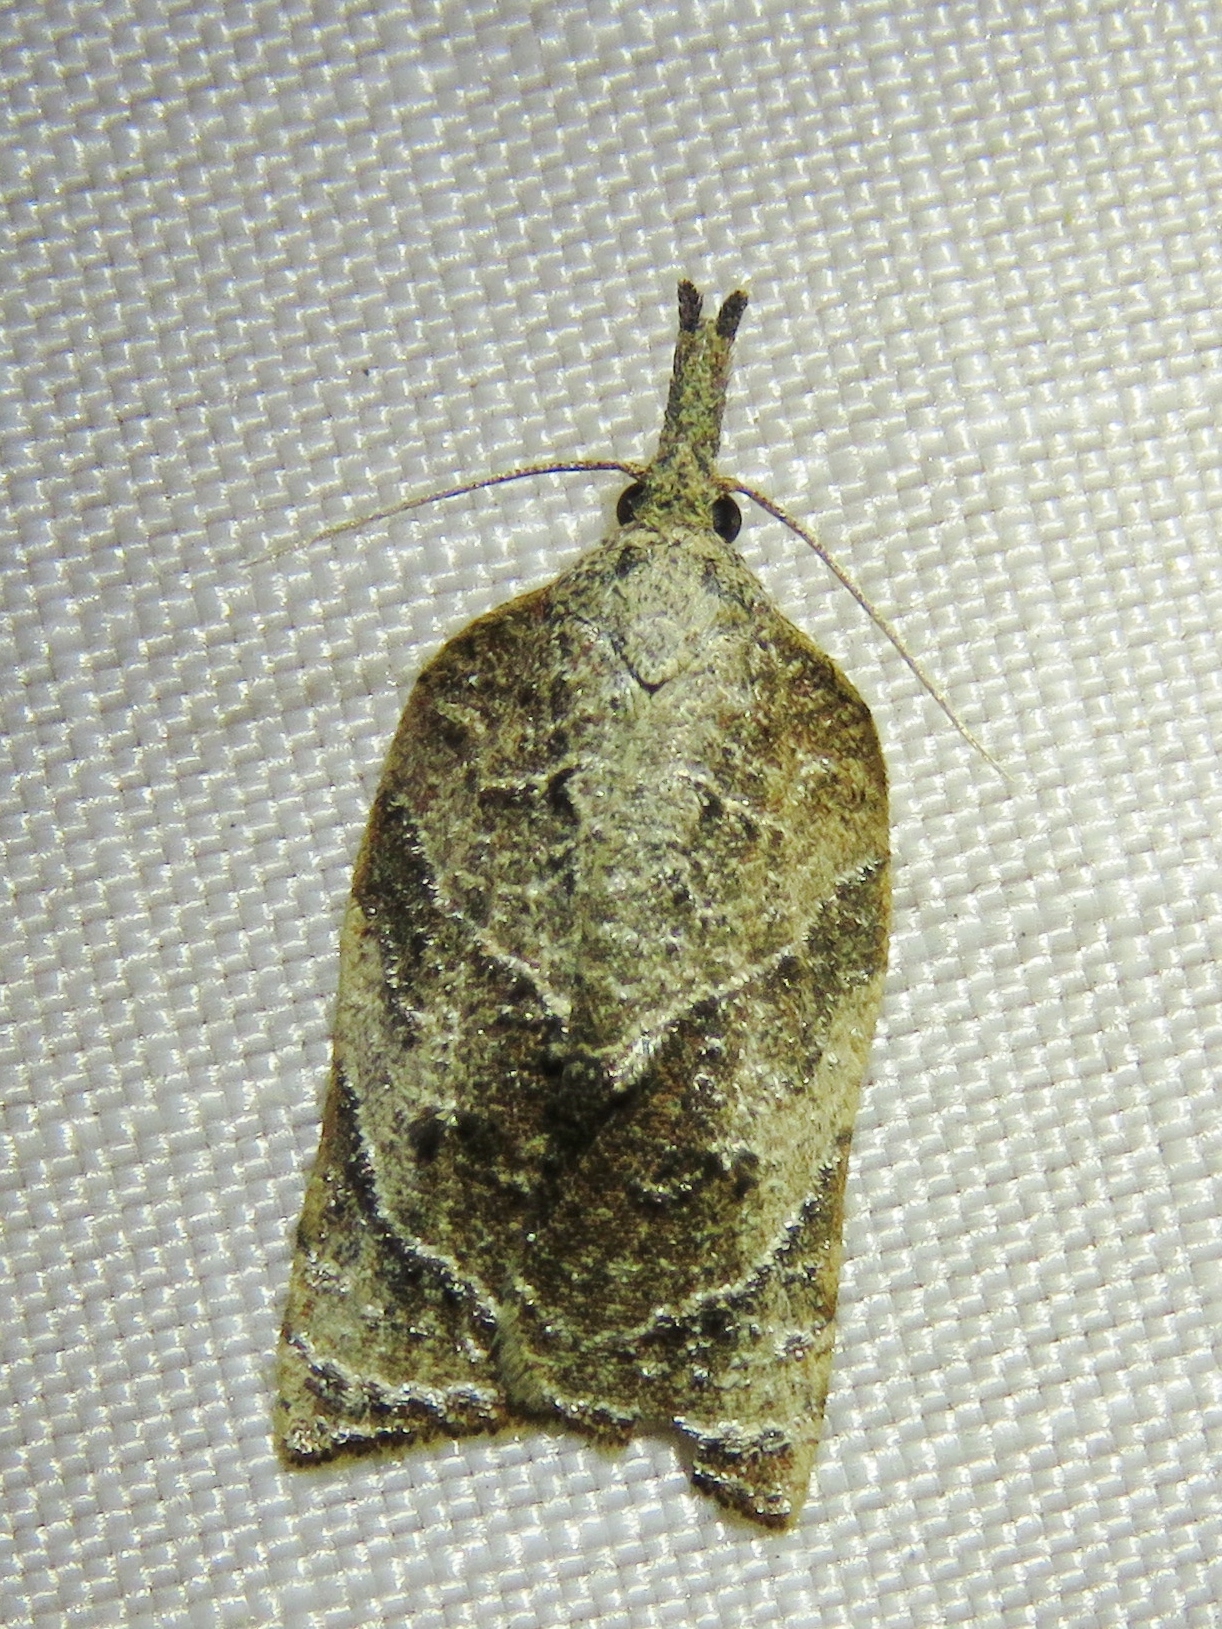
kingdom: Animalia
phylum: Arthropoda
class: Insecta
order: Lepidoptera
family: Tortricidae
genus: Platynota
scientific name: Platynota rostrana
